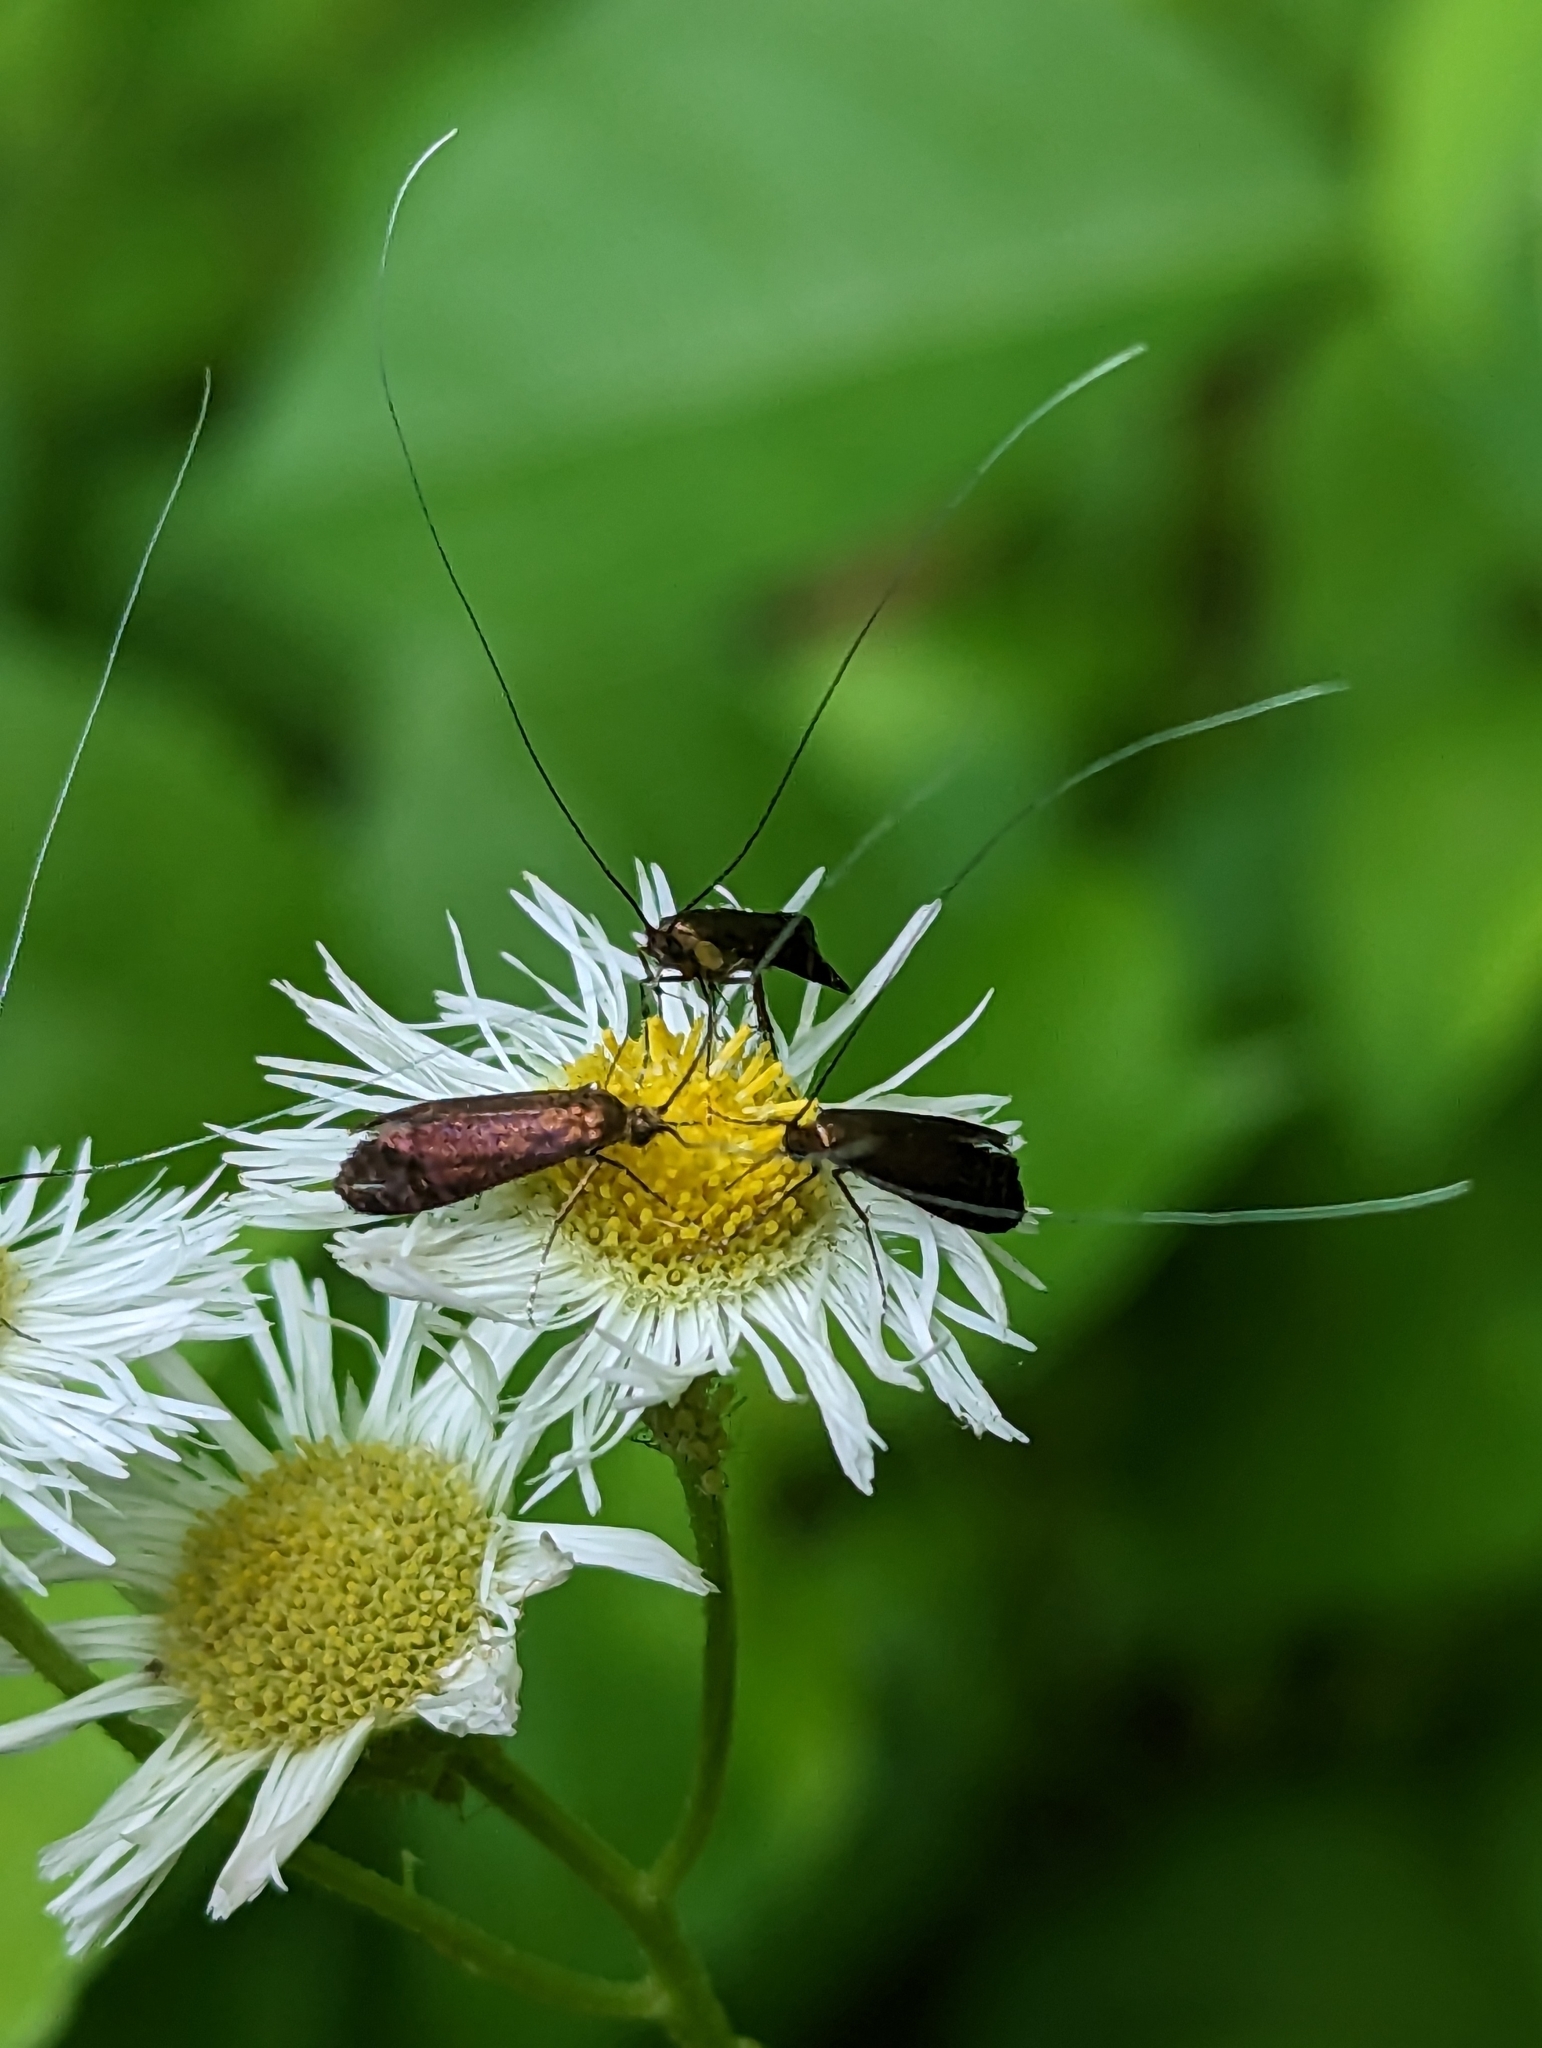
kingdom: Animalia
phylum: Arthropoda
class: Insecta
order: Lepidoptera
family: Adelidae
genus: Adela
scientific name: Adela caeruleella
